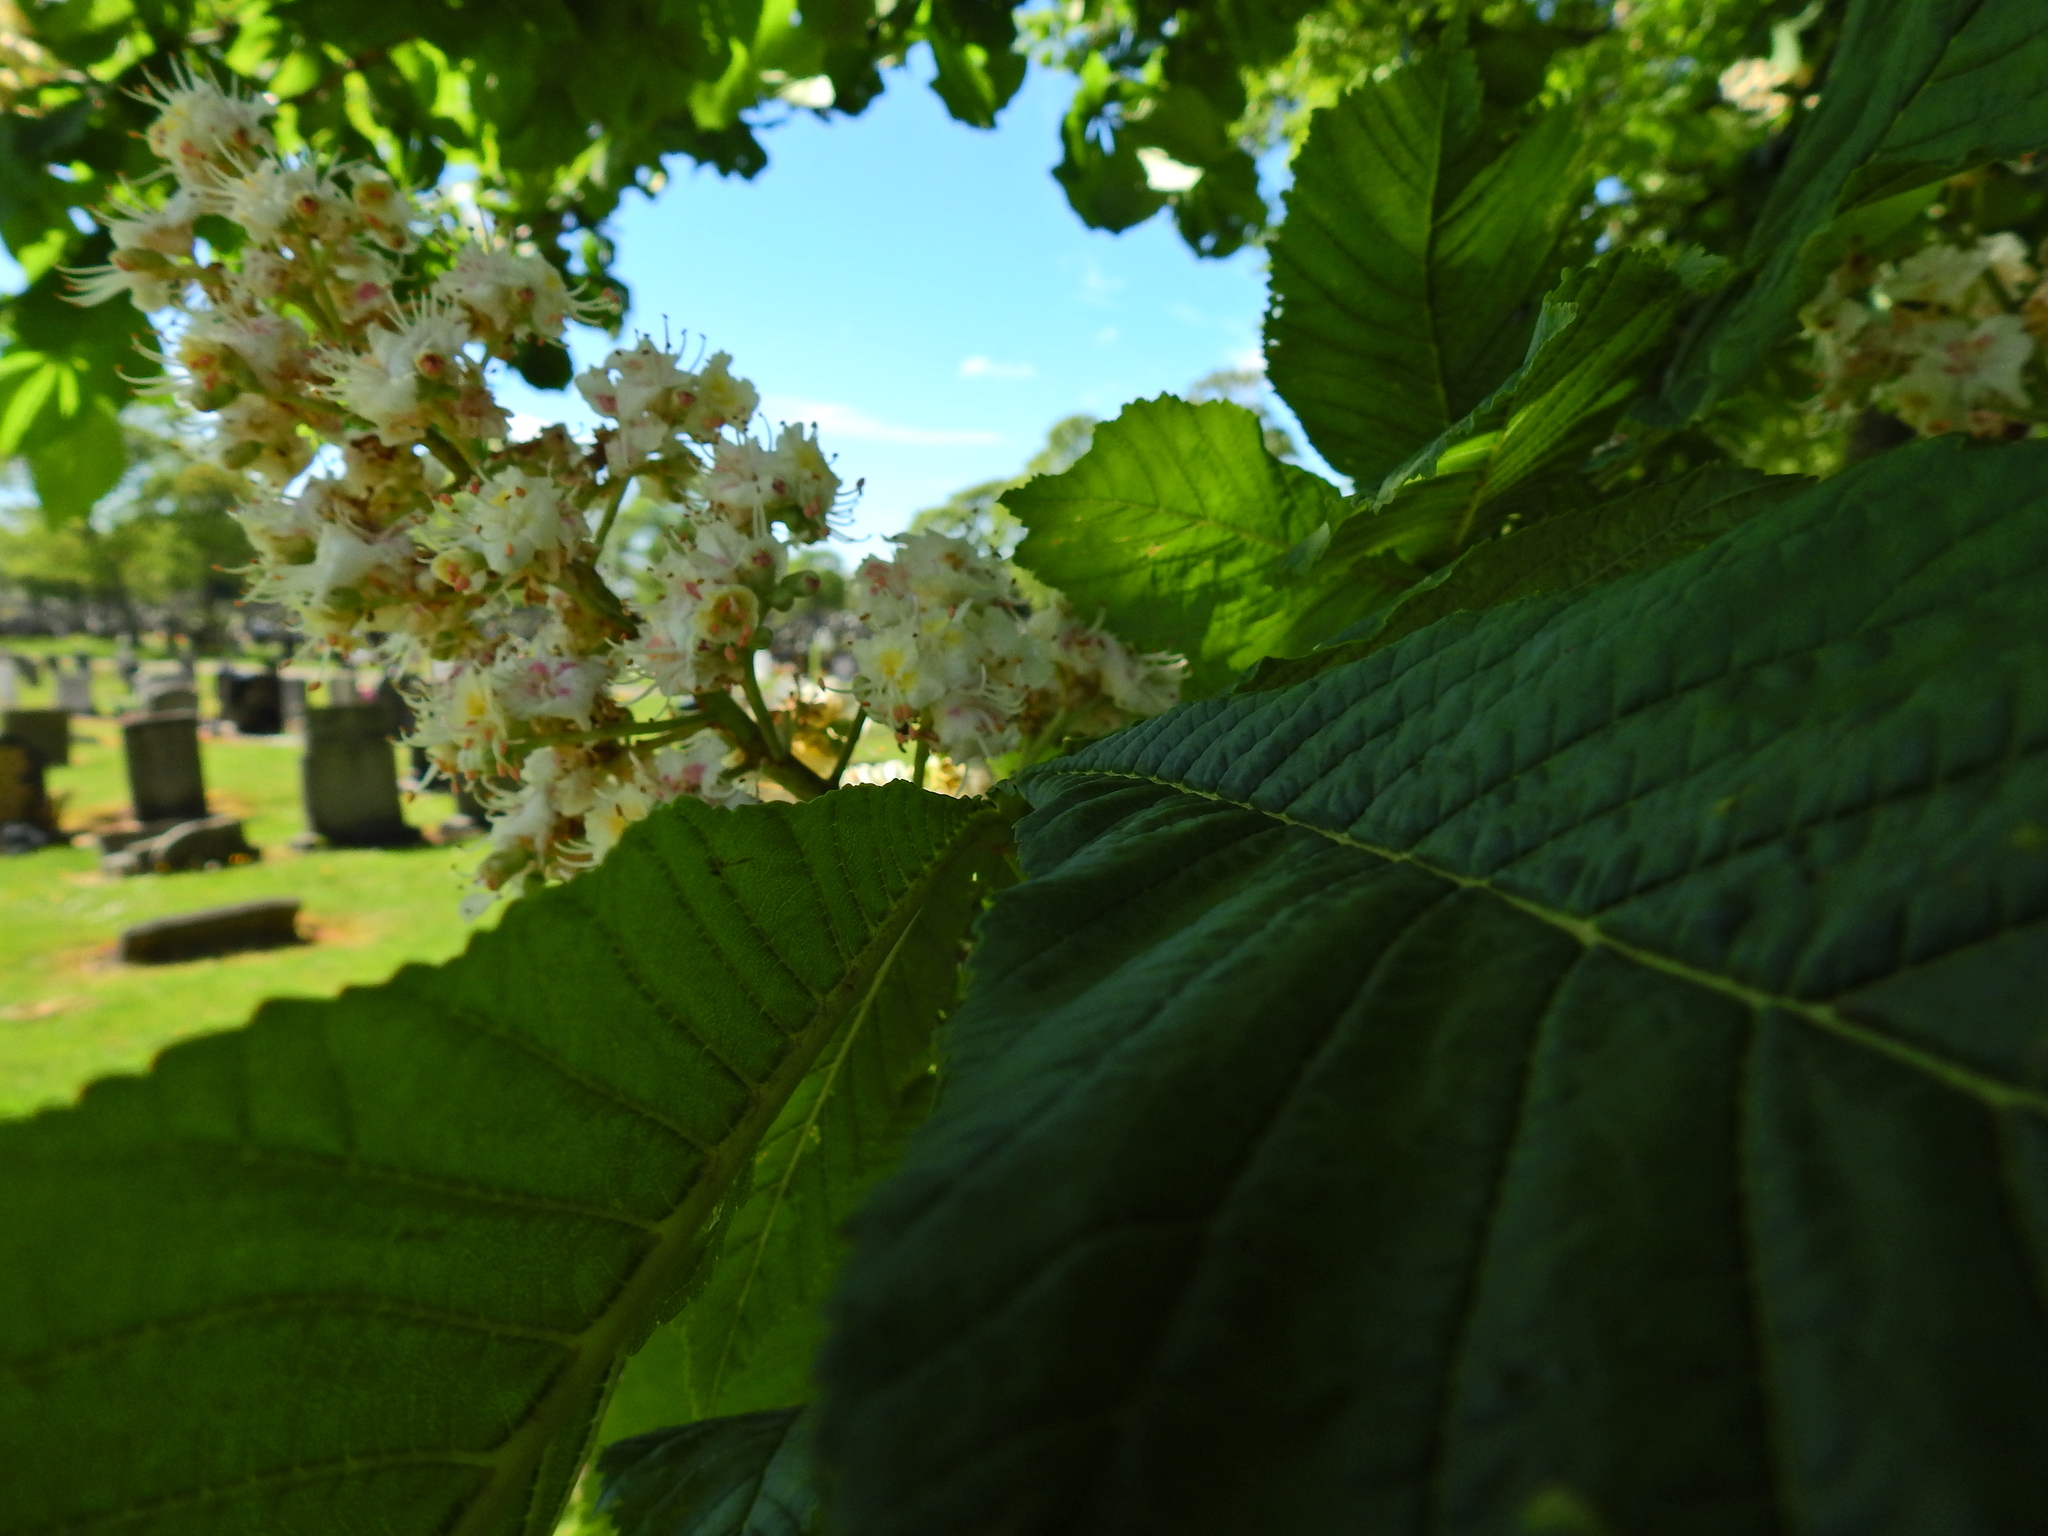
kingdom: Plantae
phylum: Tracheophyta
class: Magnoliopsida
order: Sapindales
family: Sapindaceae
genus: Aesculus
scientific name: Aesculus hippocastanum
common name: Horse-chestnut
